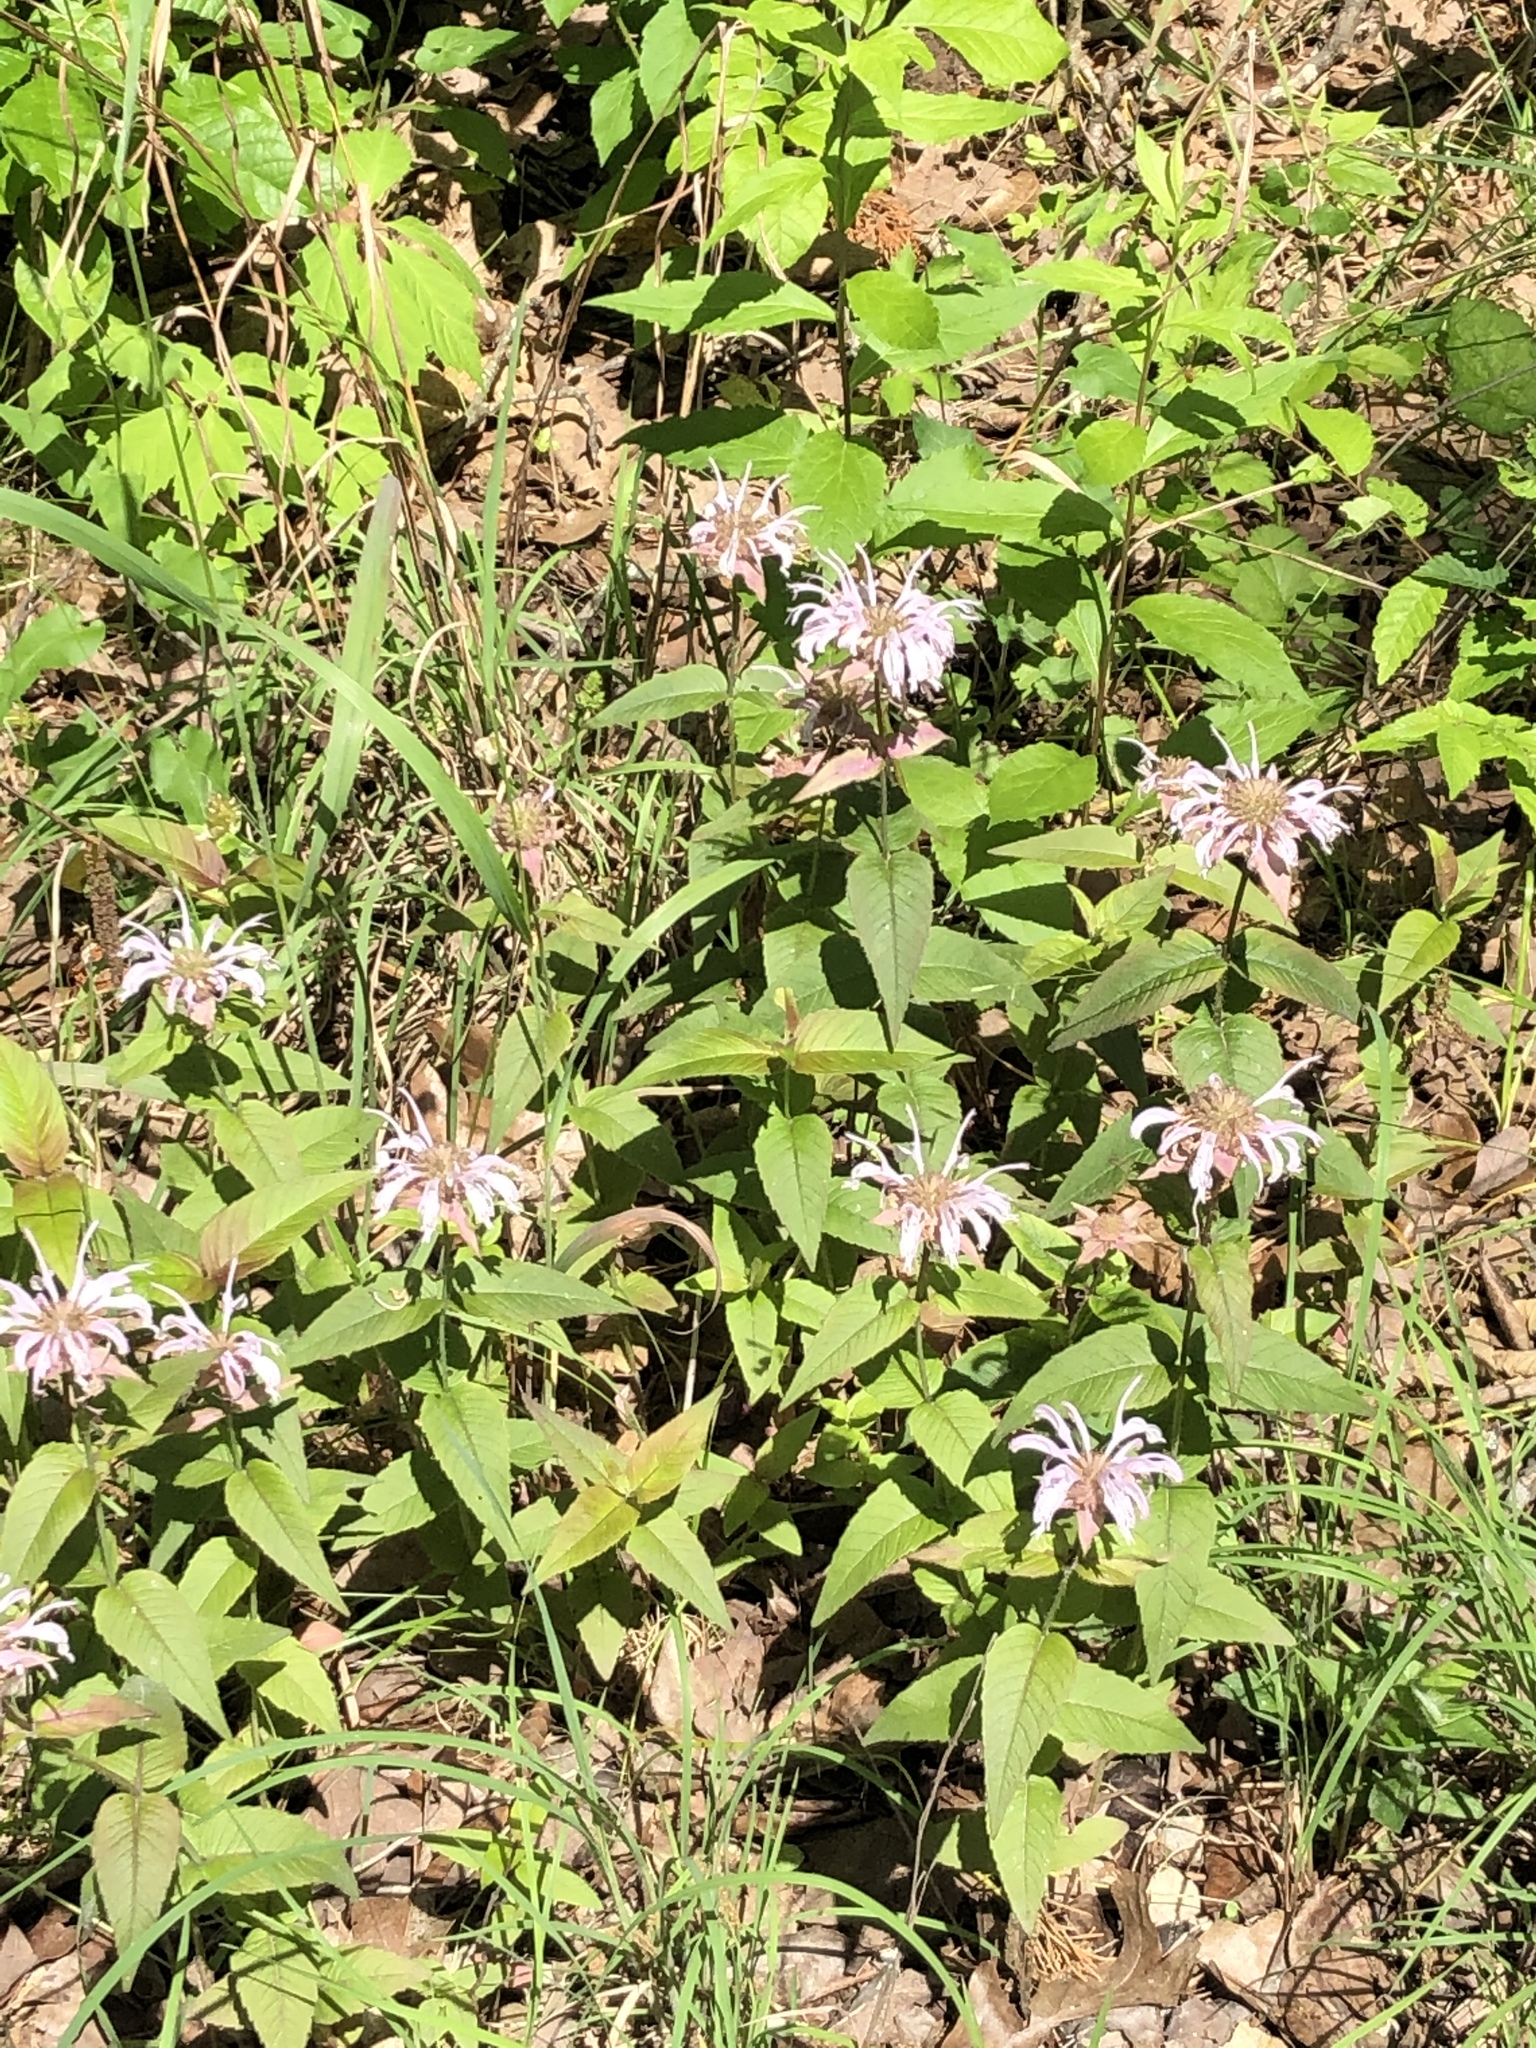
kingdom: Plantae
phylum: Tracheophyta
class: Magnoliopsida
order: Lamiales
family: Lamiaceae
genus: Monarda
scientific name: Monarda bradburiana
